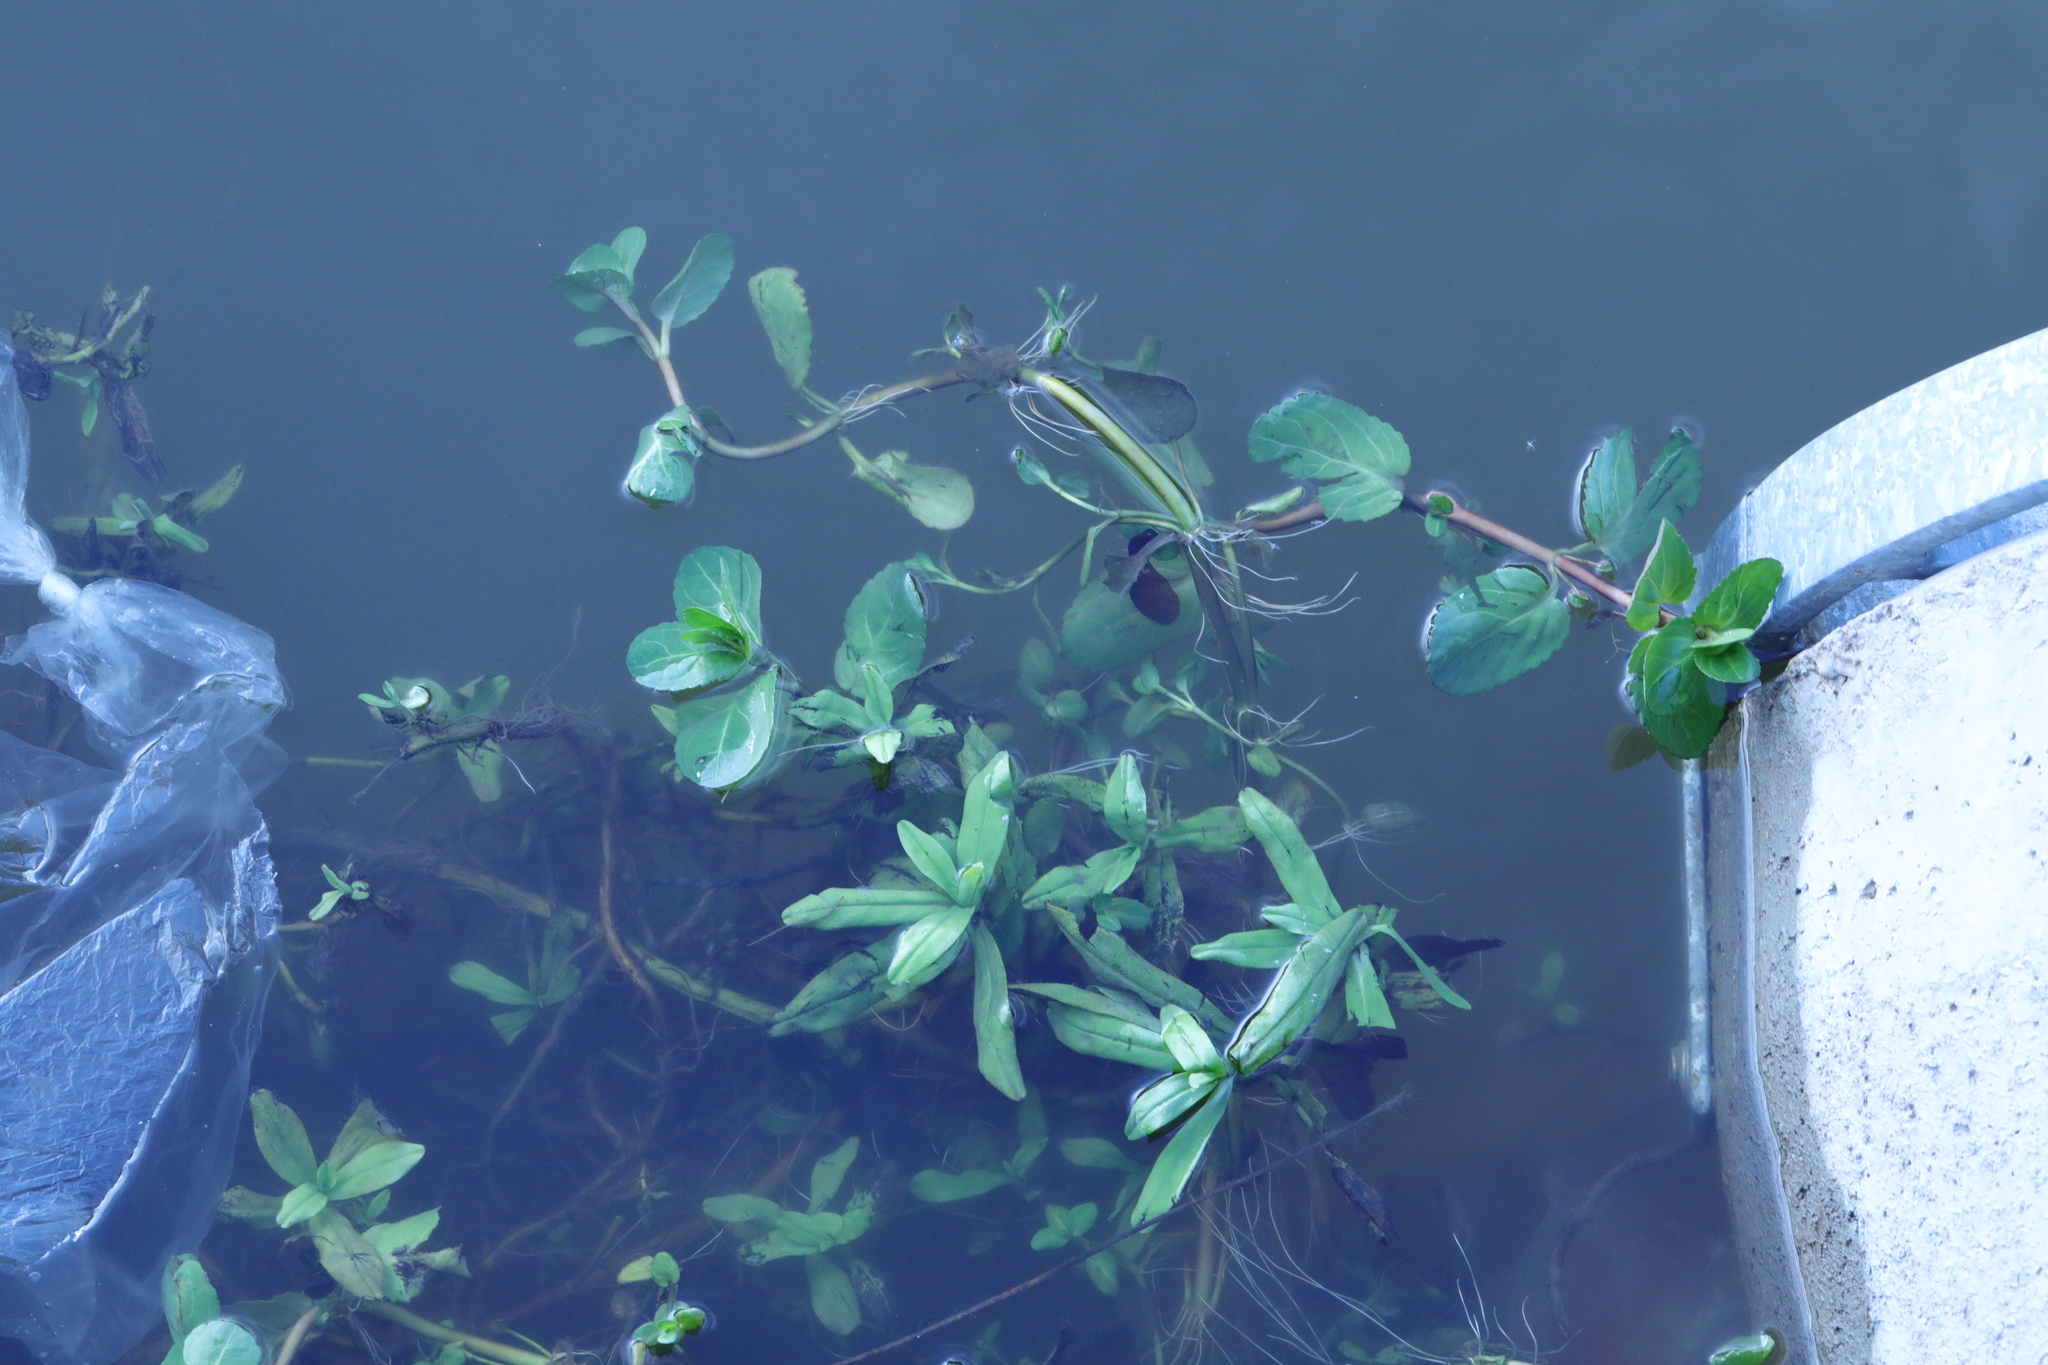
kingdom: Plantae
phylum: Tracheophyta
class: Magnoliopsida
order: Lamiales
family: Plantaginaceae
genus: Veronica
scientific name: Veronica beccabunga
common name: Brooklime
